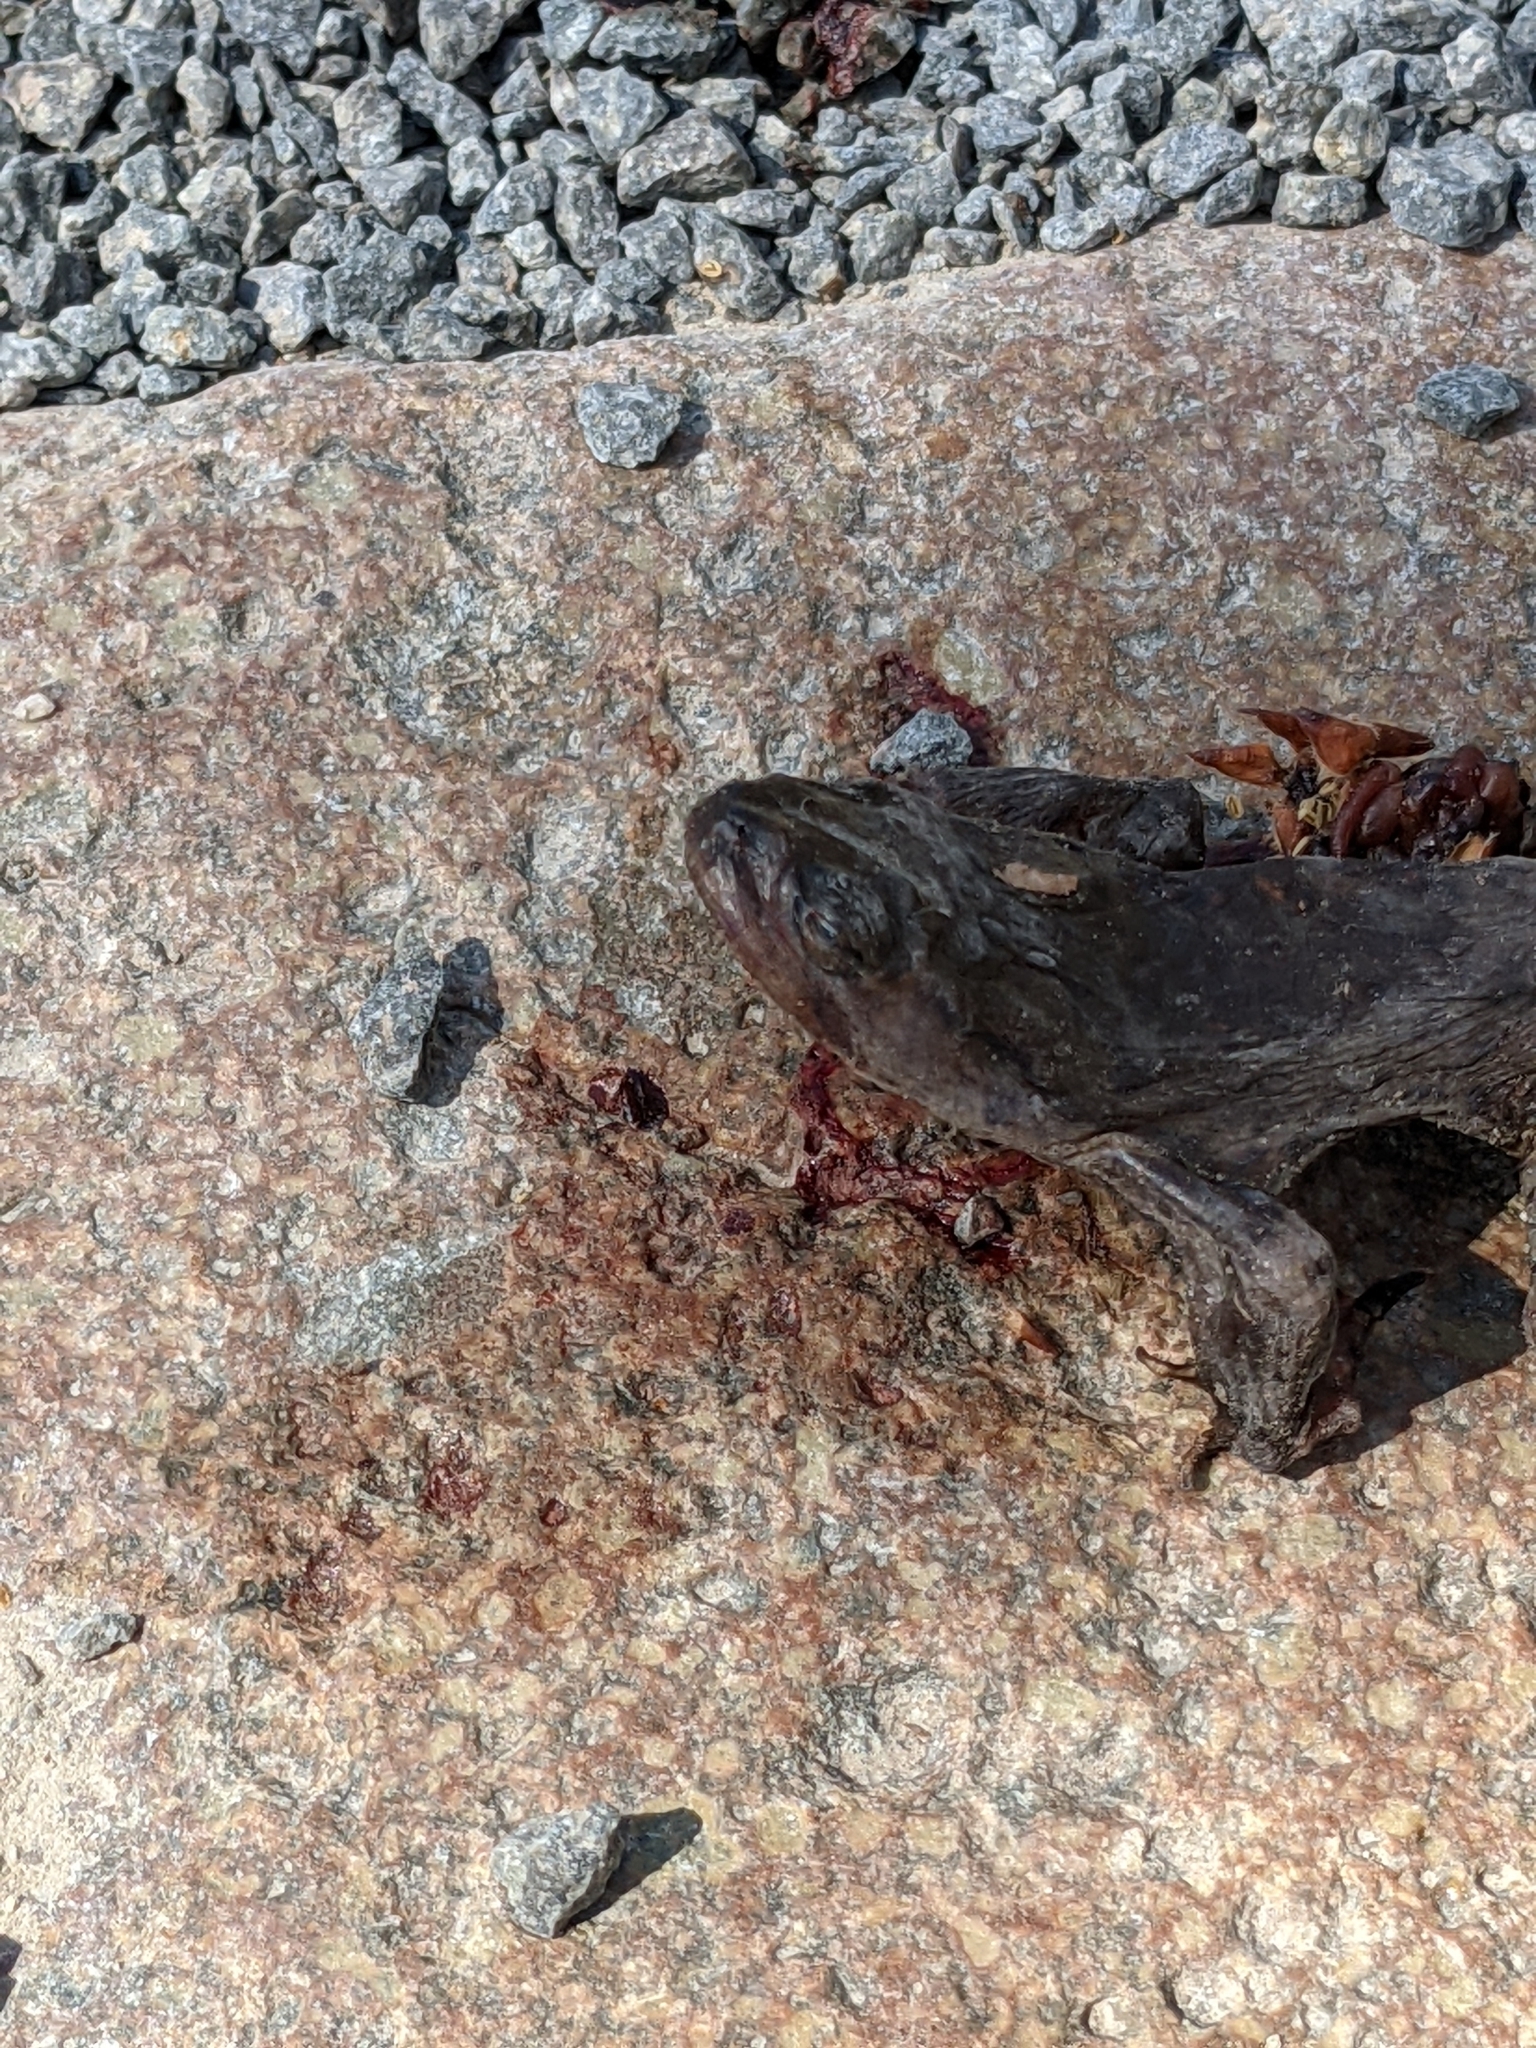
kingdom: Animalia
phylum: Chordata
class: Amphibia
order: Anura
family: Bufonidae
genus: Bufo
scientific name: Bufo bufo
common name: Common toad
